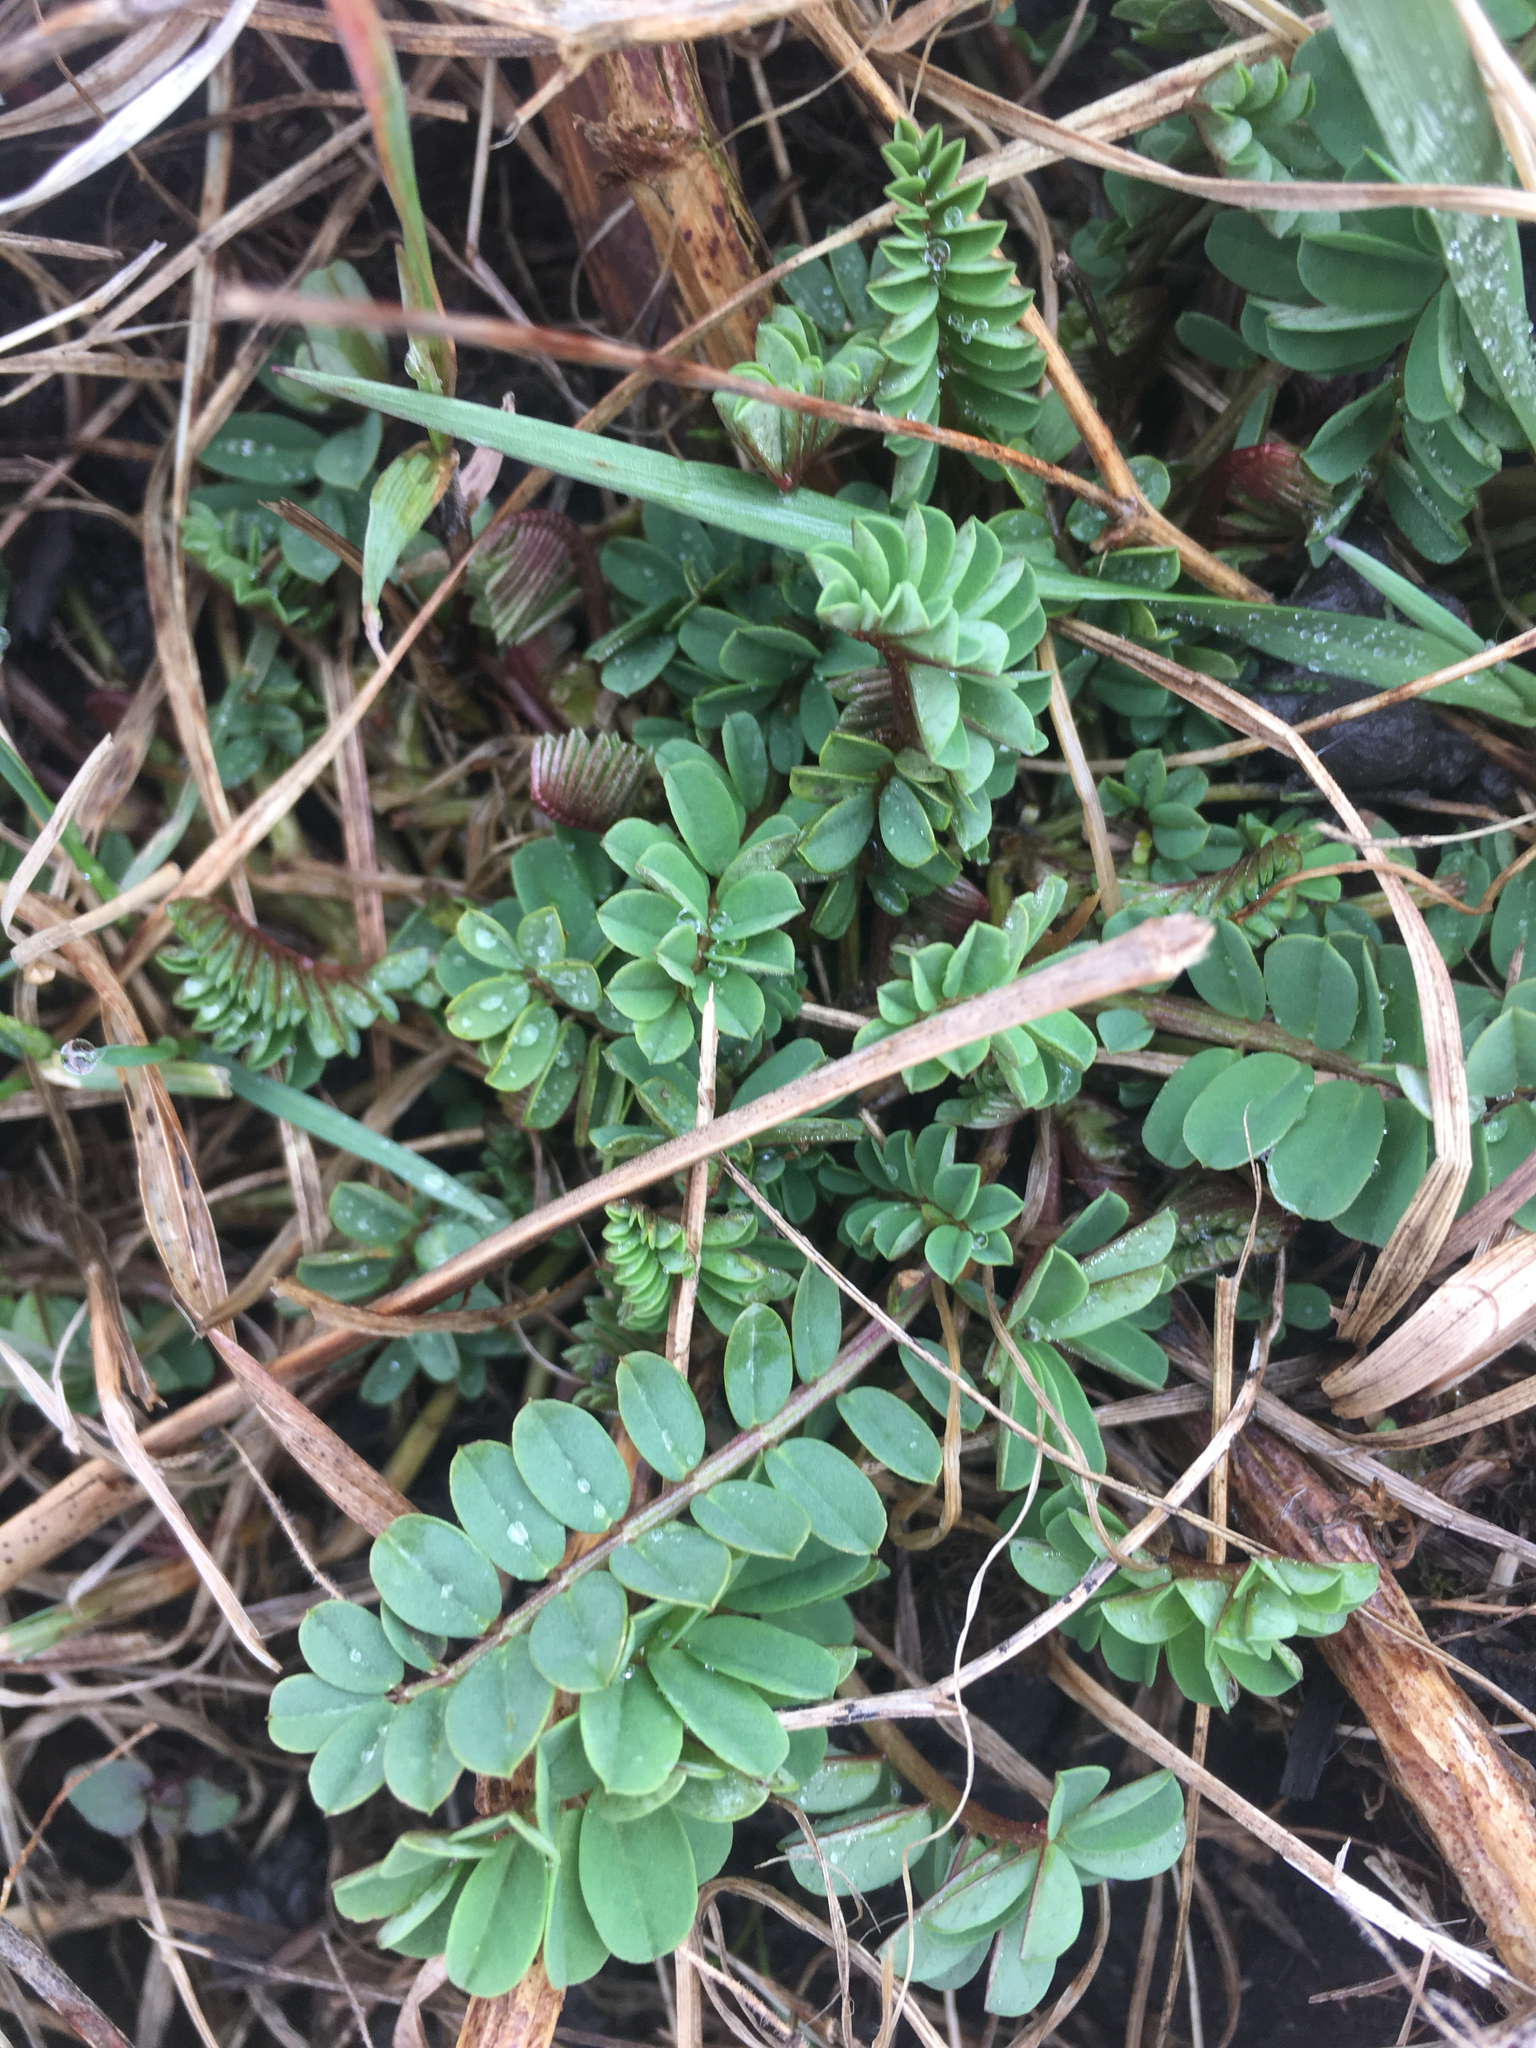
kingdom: Plantae
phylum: Tracheophyta
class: Magnoliopsida
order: Fabales
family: Fabaceae
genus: Coronilla
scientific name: Coronilla varia
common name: Crownvetch
